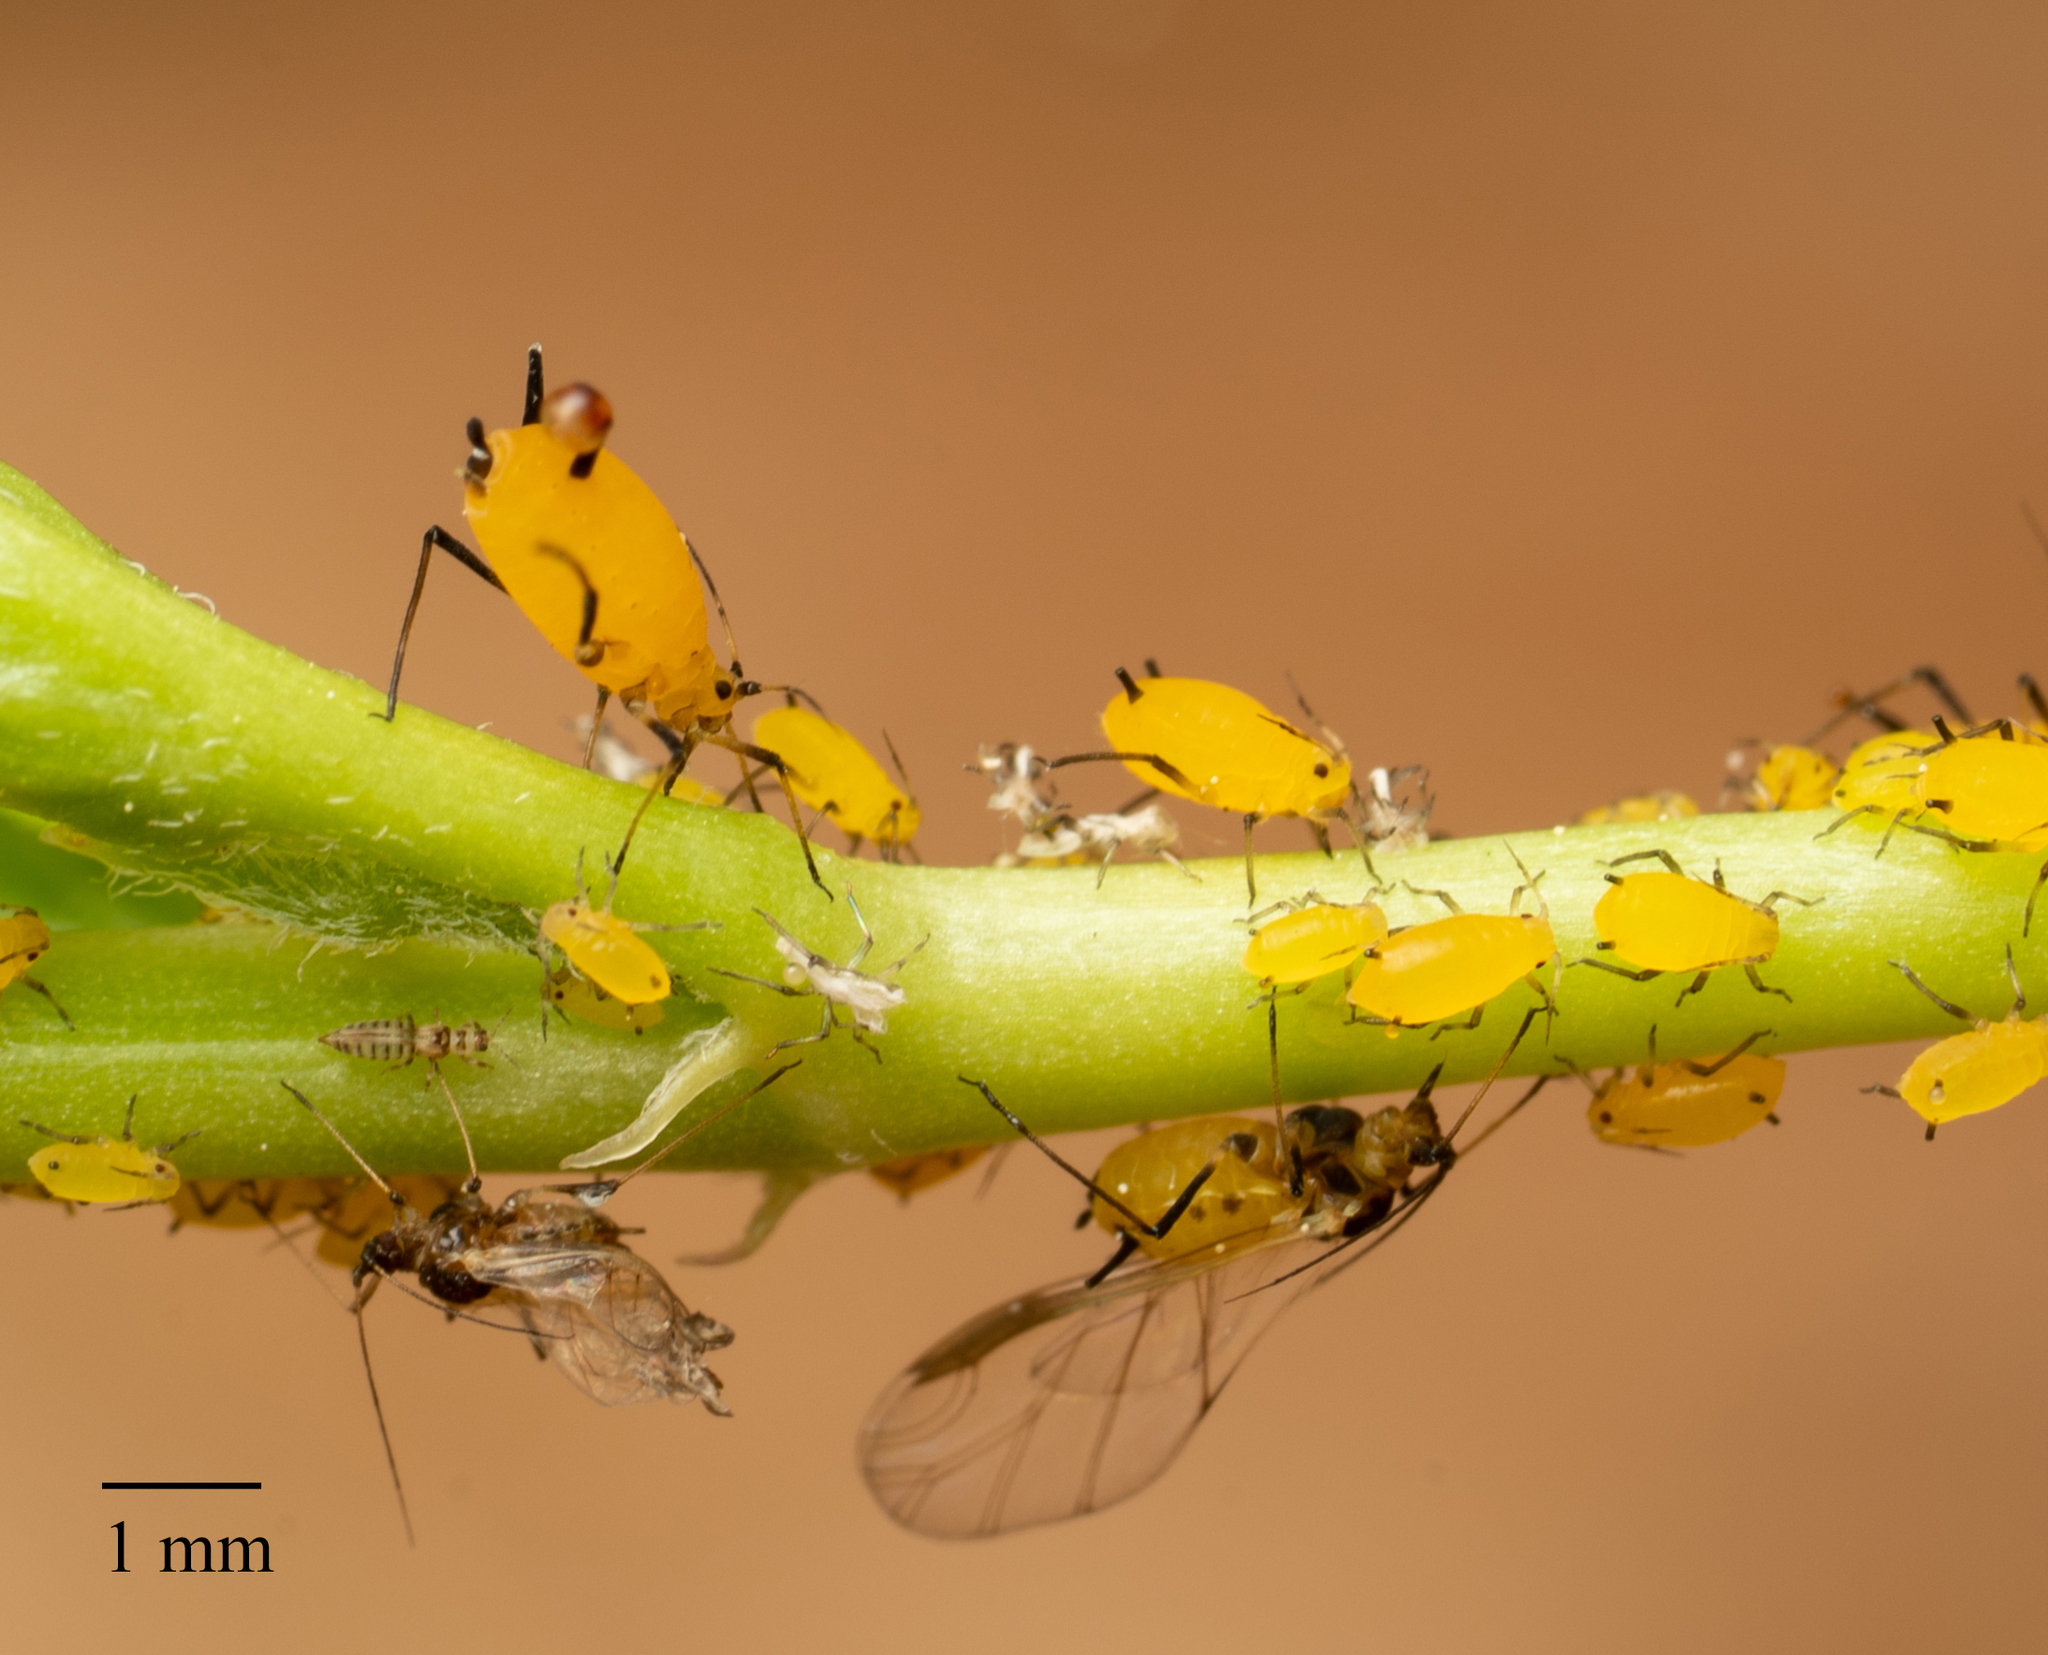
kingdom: Animalia
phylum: Arthropoda
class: Insecta
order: Hemiptera
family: Aphididae
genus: Aphis
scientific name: Aphis nerii
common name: Oleander aphid
